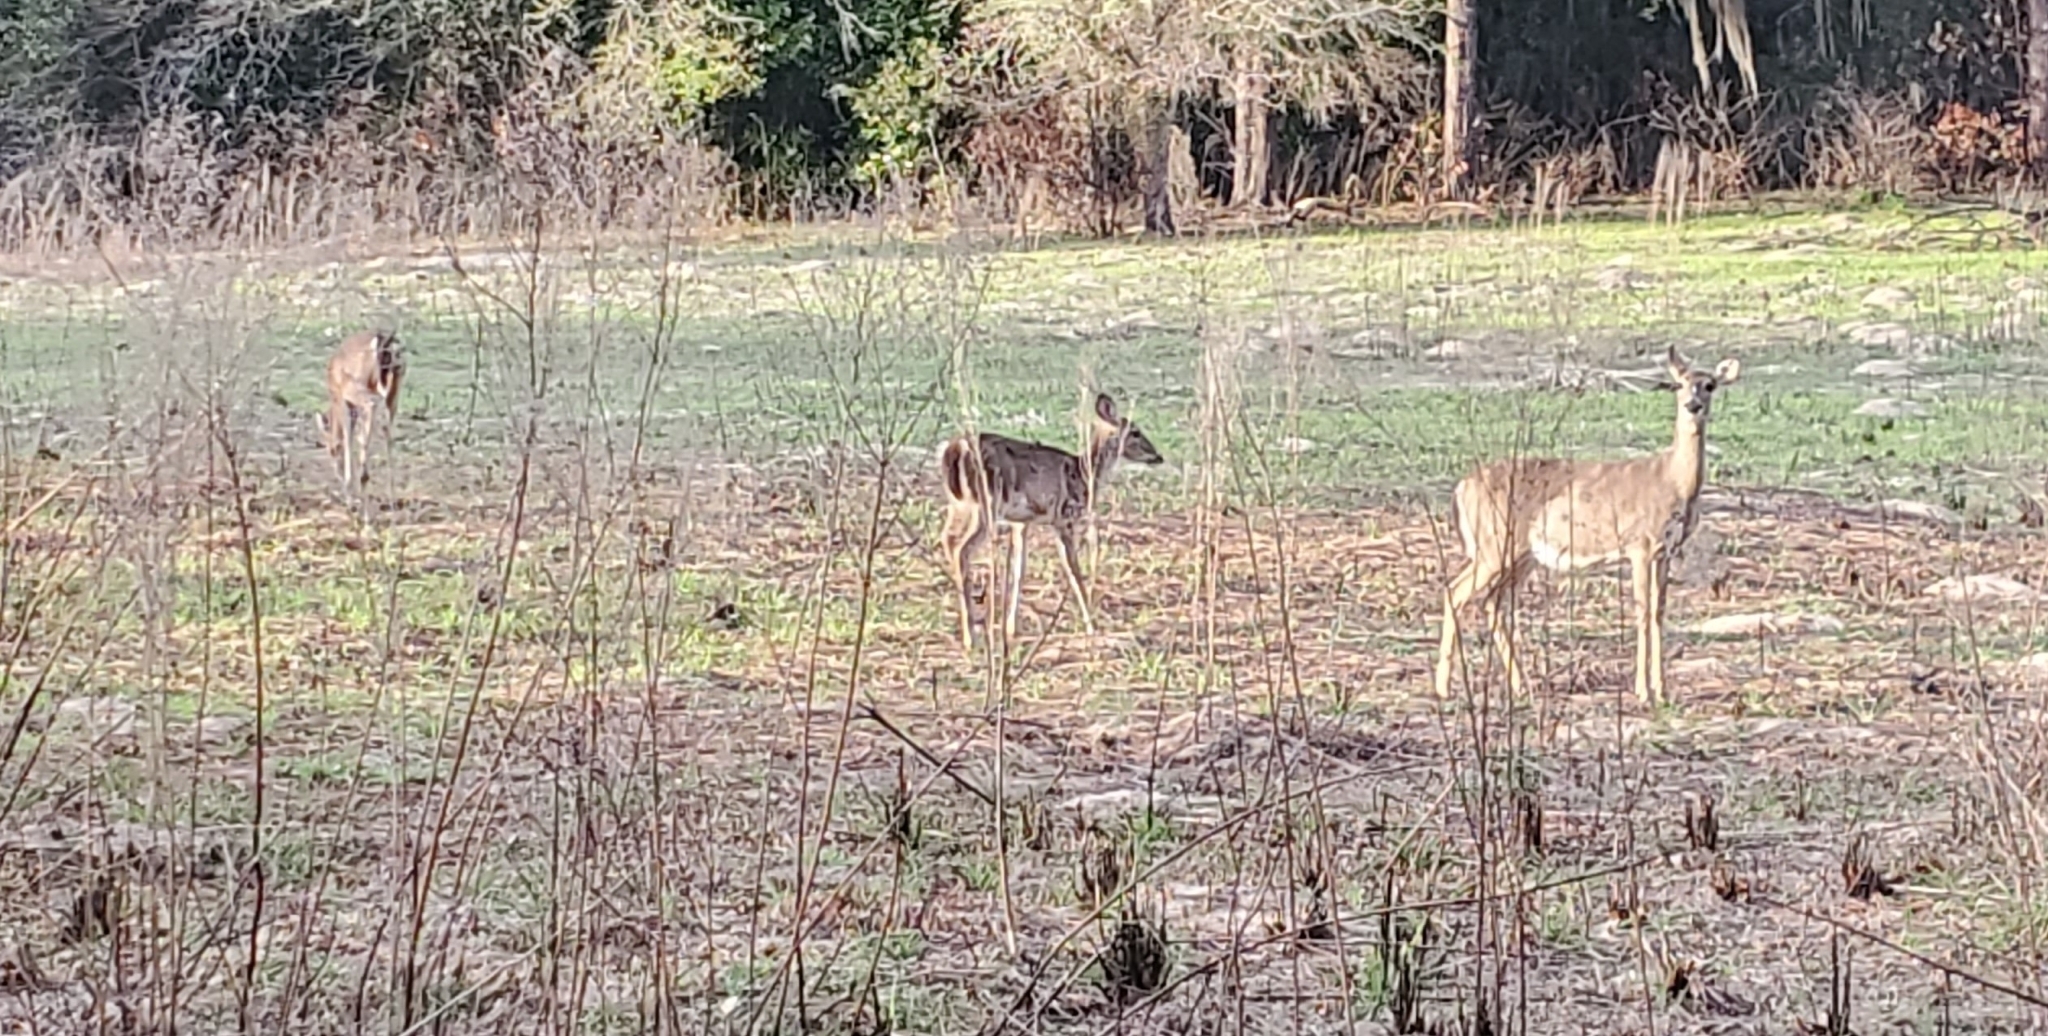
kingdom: Animalia
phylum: Chordata
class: Mammalia
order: Artiodactyla
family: Cervidae
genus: Odocoileus
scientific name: Odocoileus virginianus
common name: White-tailed deer
